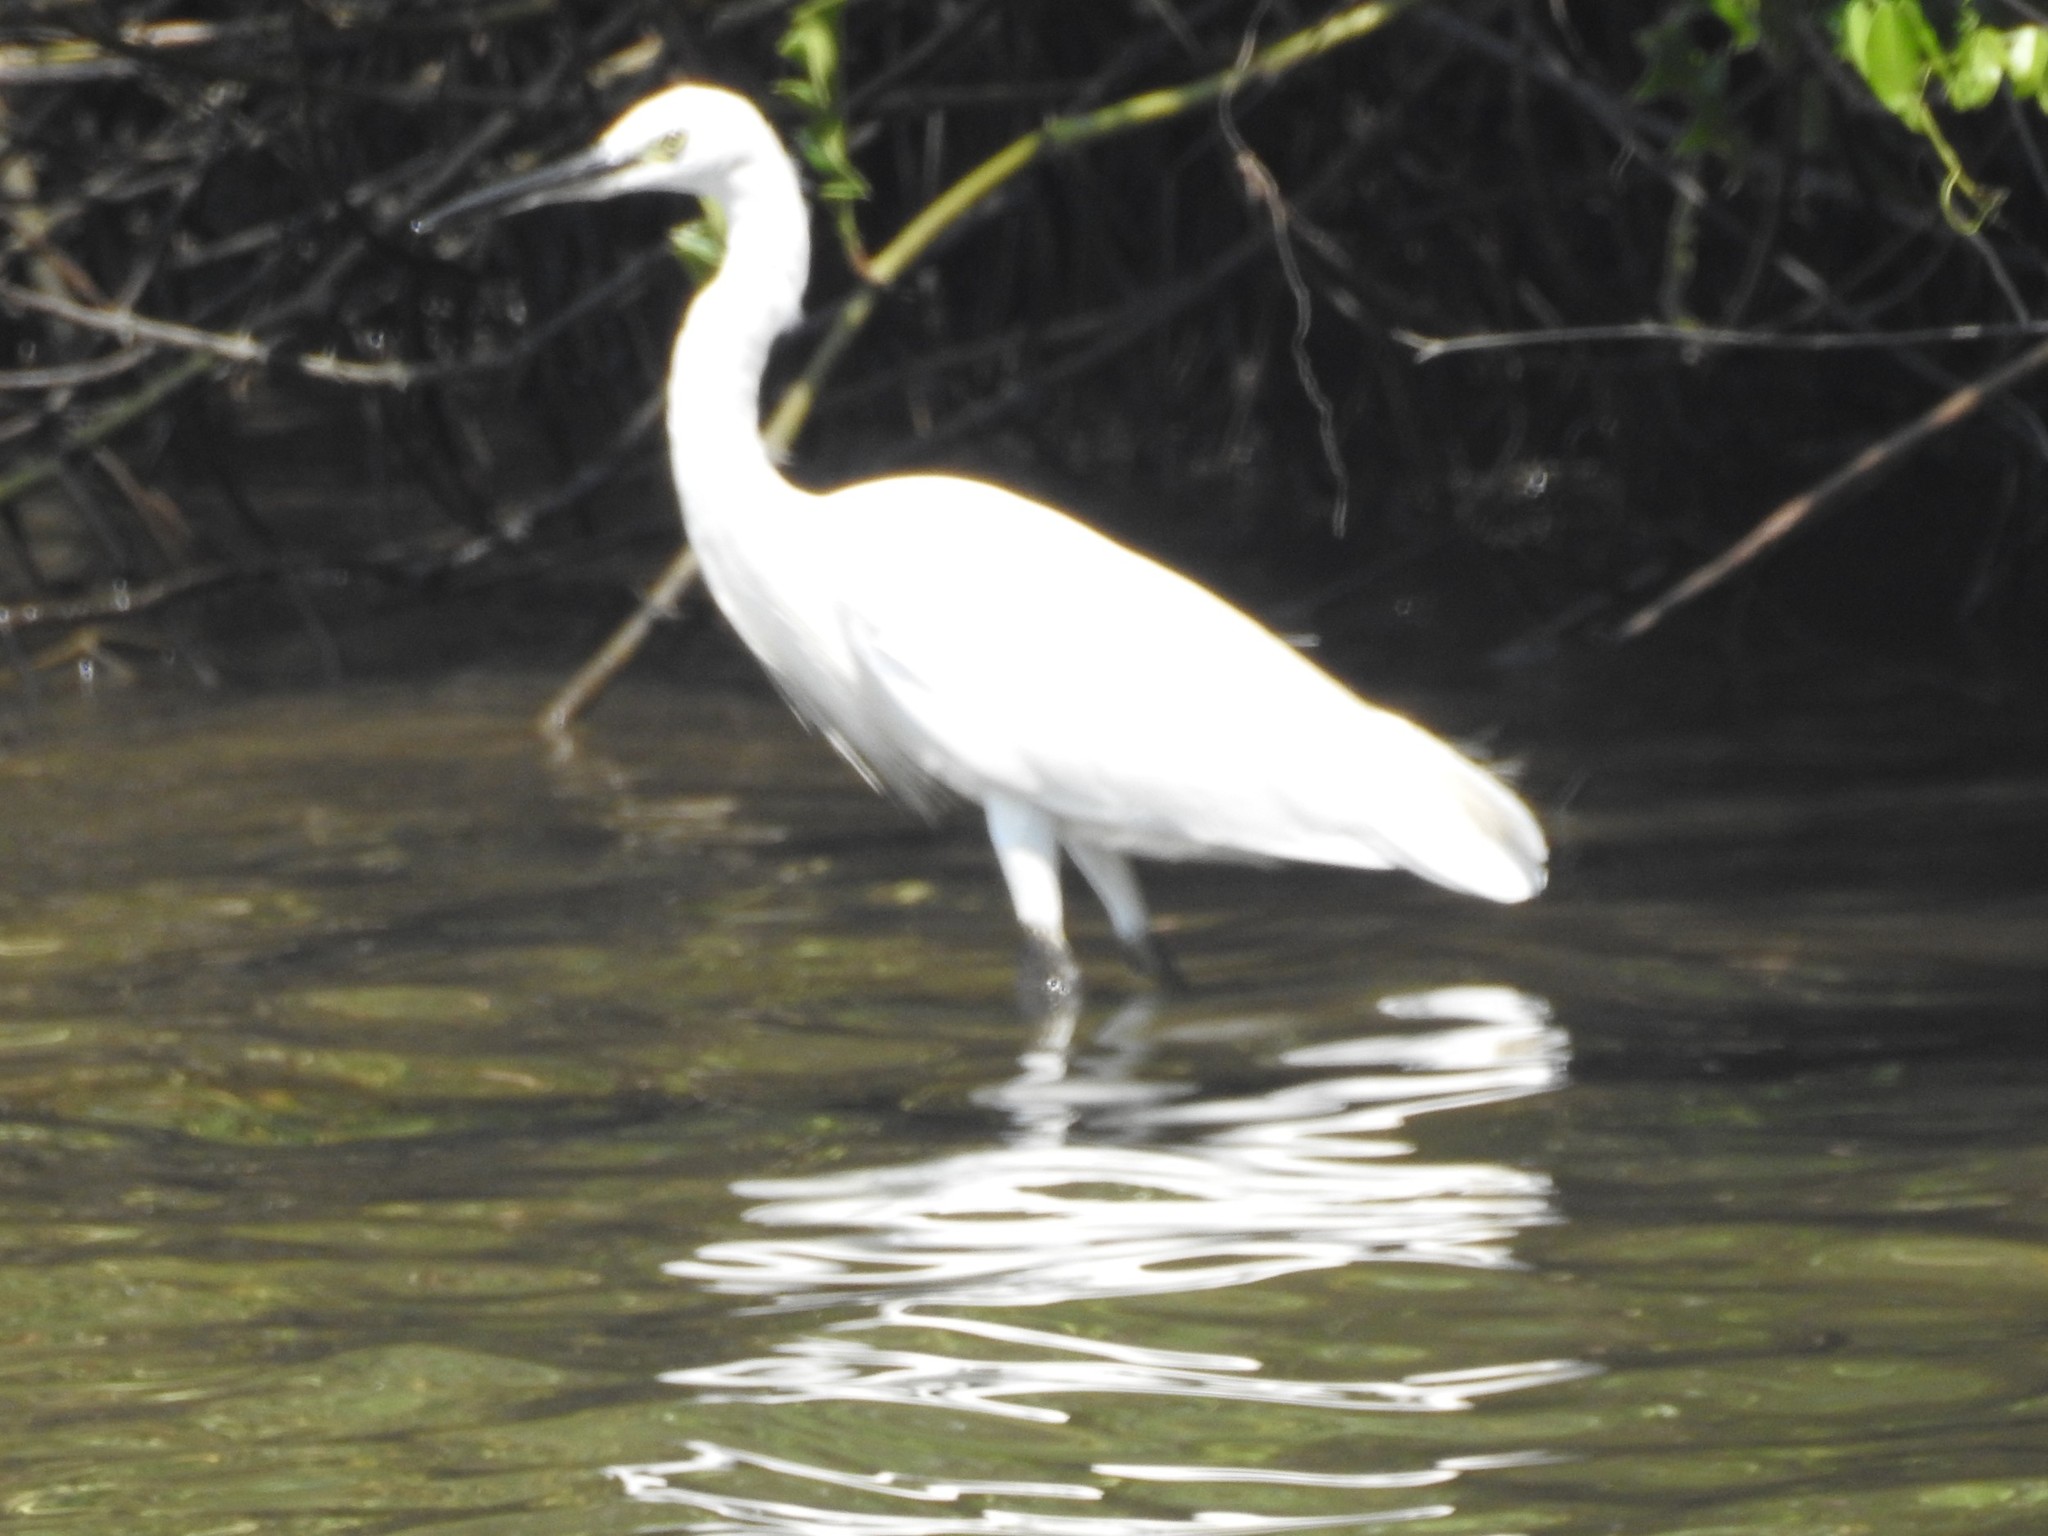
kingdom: Animalia
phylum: Chordata
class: Aves
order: Pelecaniformes
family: Ardeidae
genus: Egretta
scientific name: Egretta garzetta
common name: Little egret
